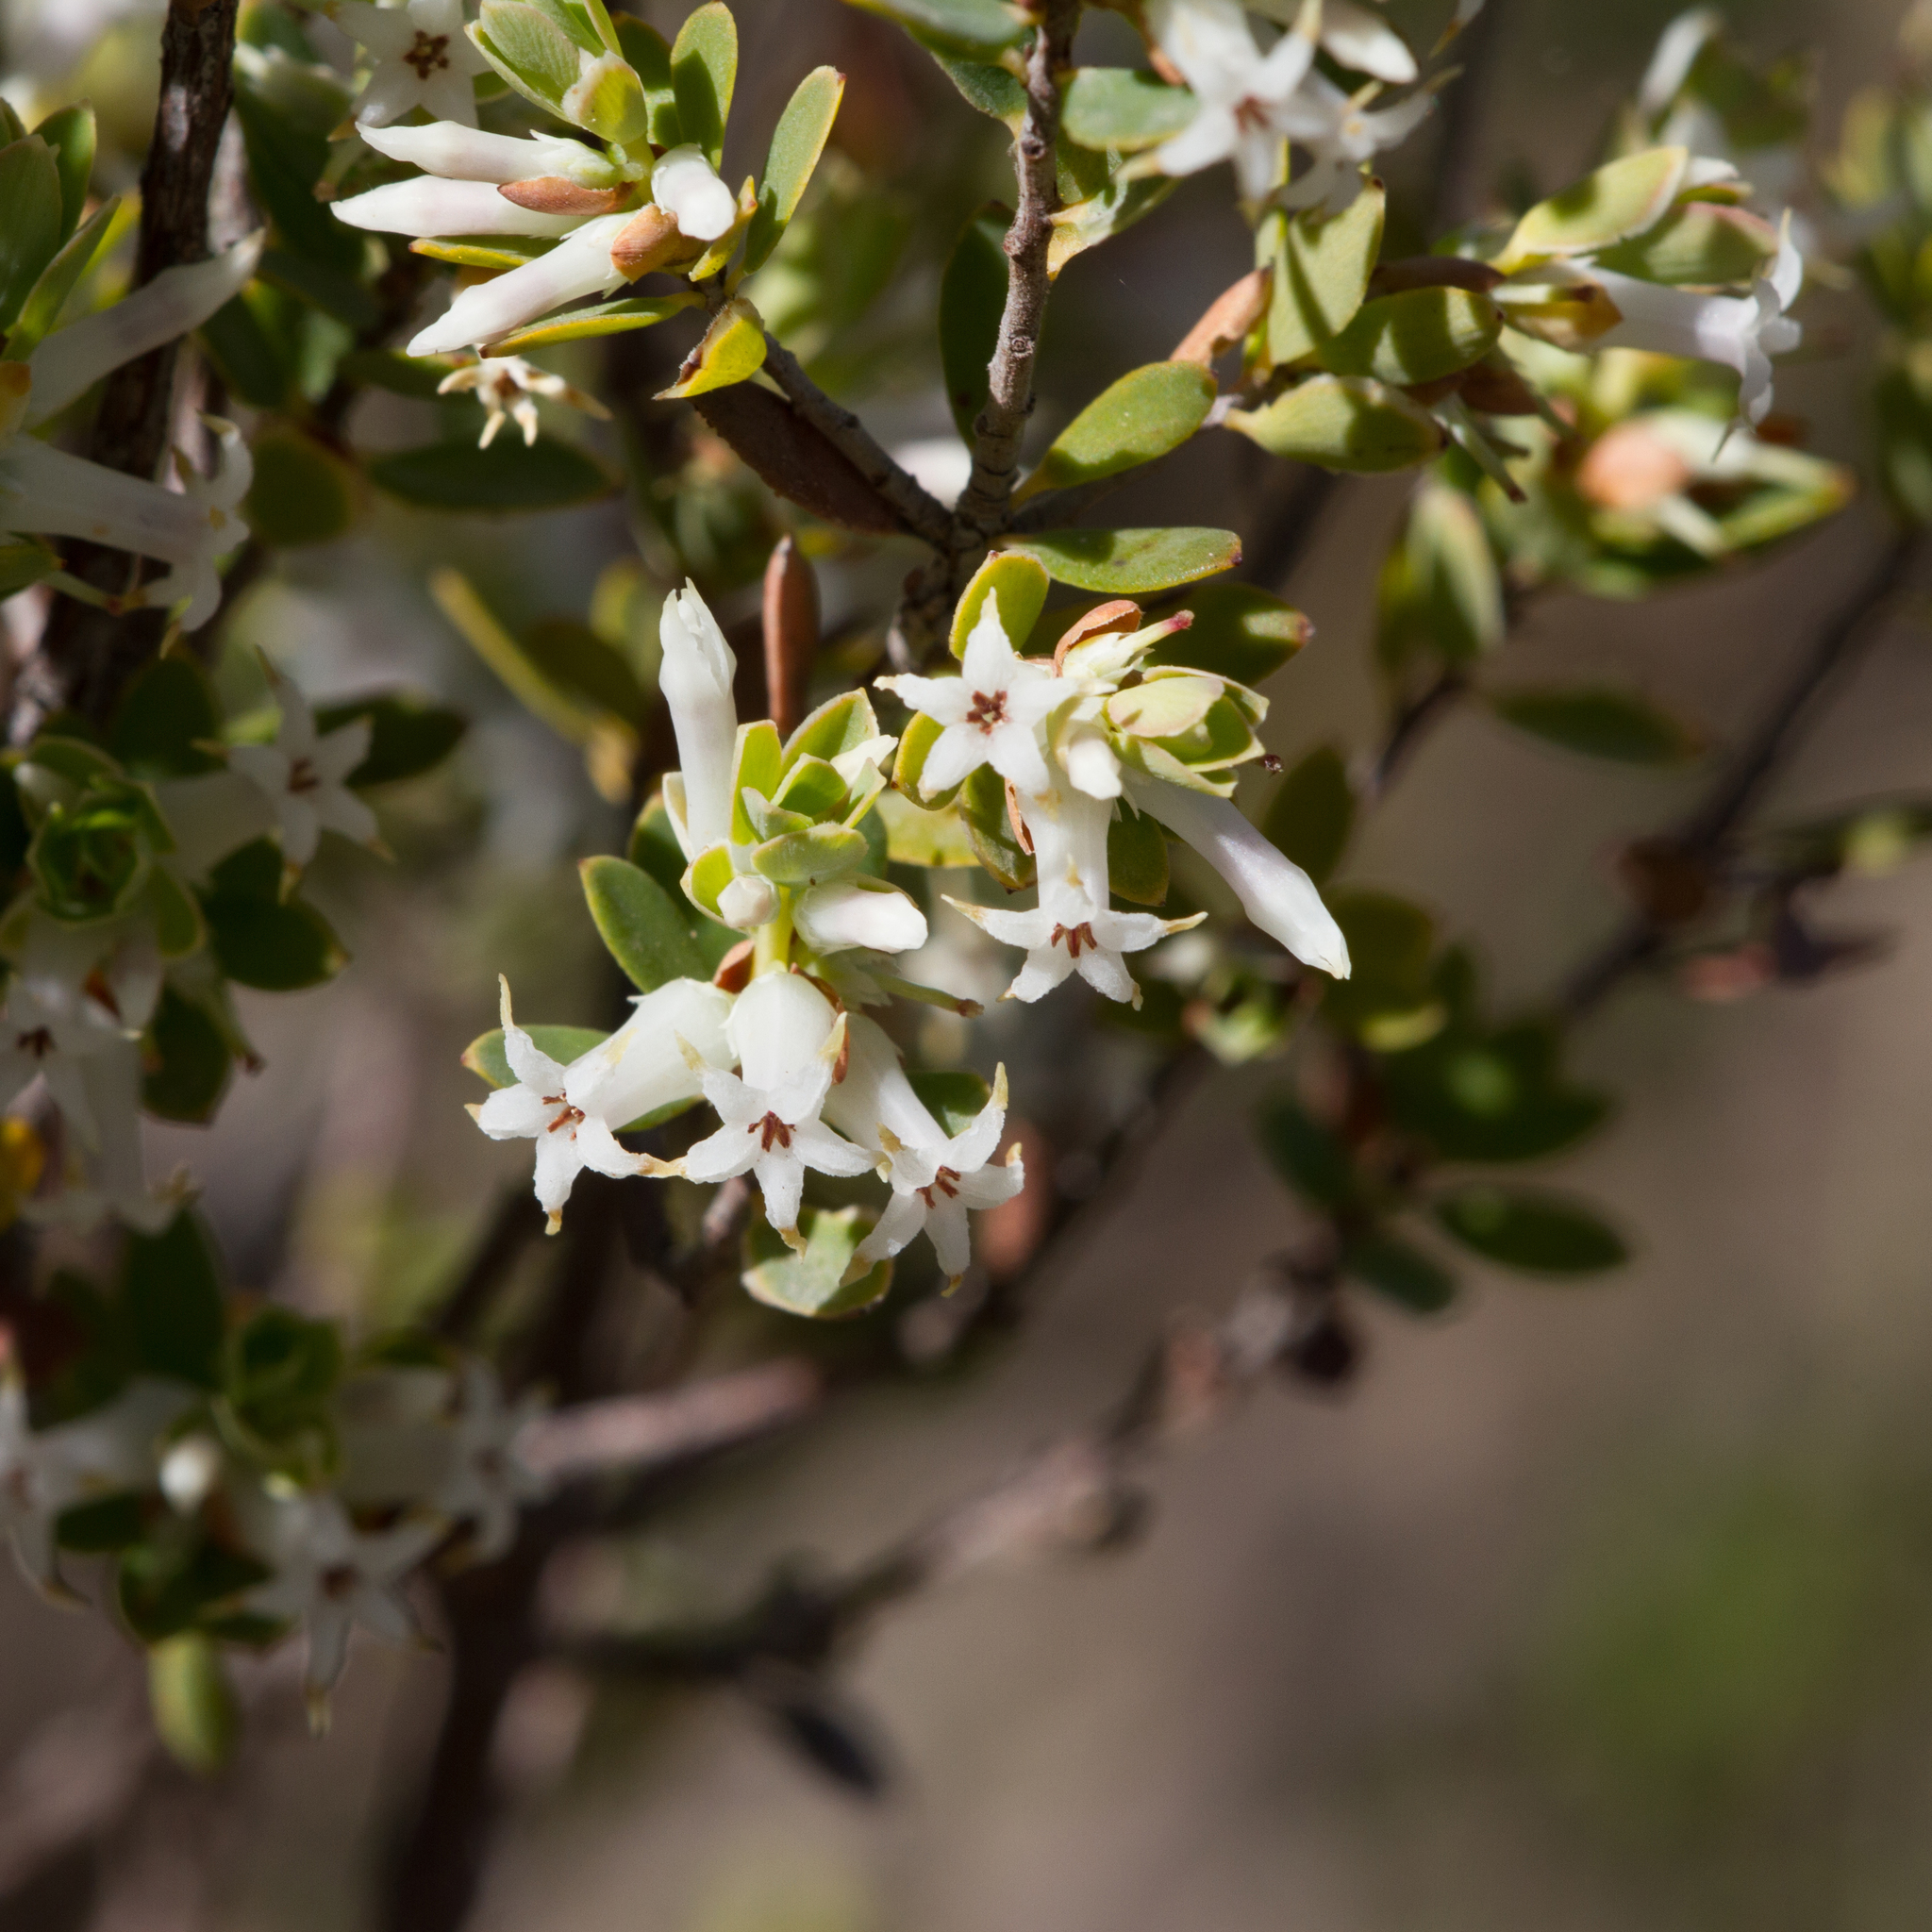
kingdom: Plantae
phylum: Tracheophyta
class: Magnoliopsida
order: Ericales
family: Ericaceae
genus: Brachyloma
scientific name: Brachyloma daphnoides
